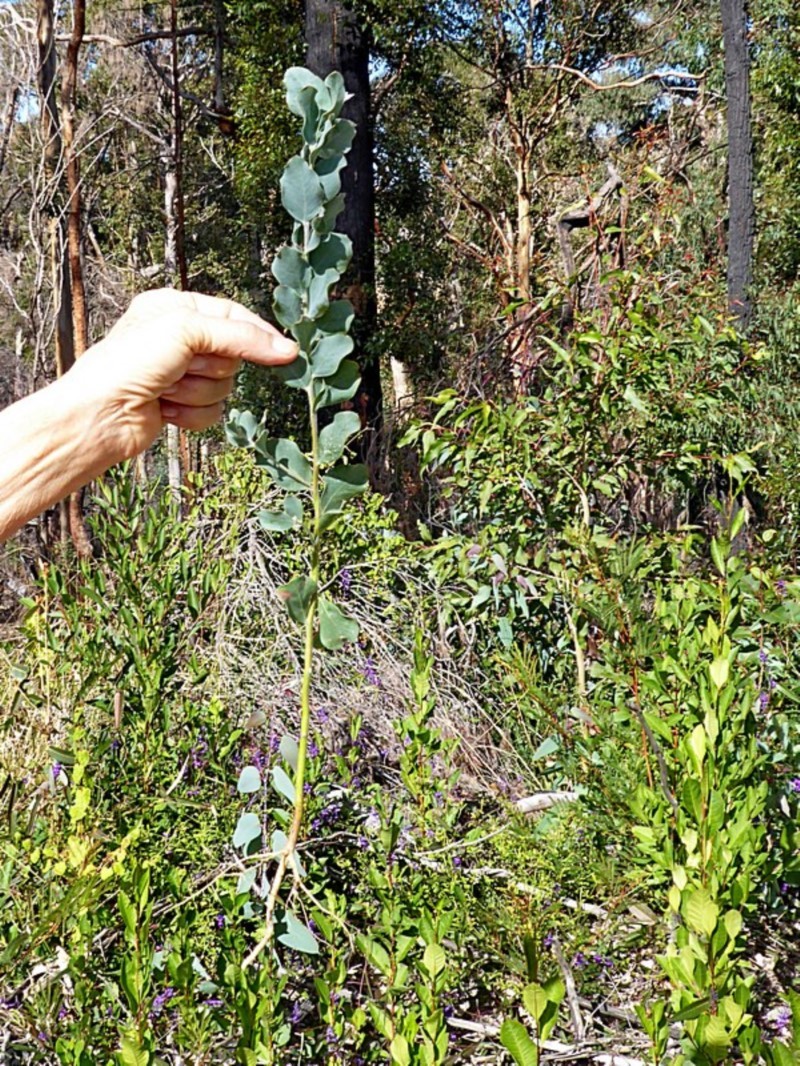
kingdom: Plantae
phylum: Tracheophyta
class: Magnoliopsida
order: Fabales
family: Fabaceae
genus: Acacia
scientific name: Acacia podalyriifolia
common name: Pearl wattle
